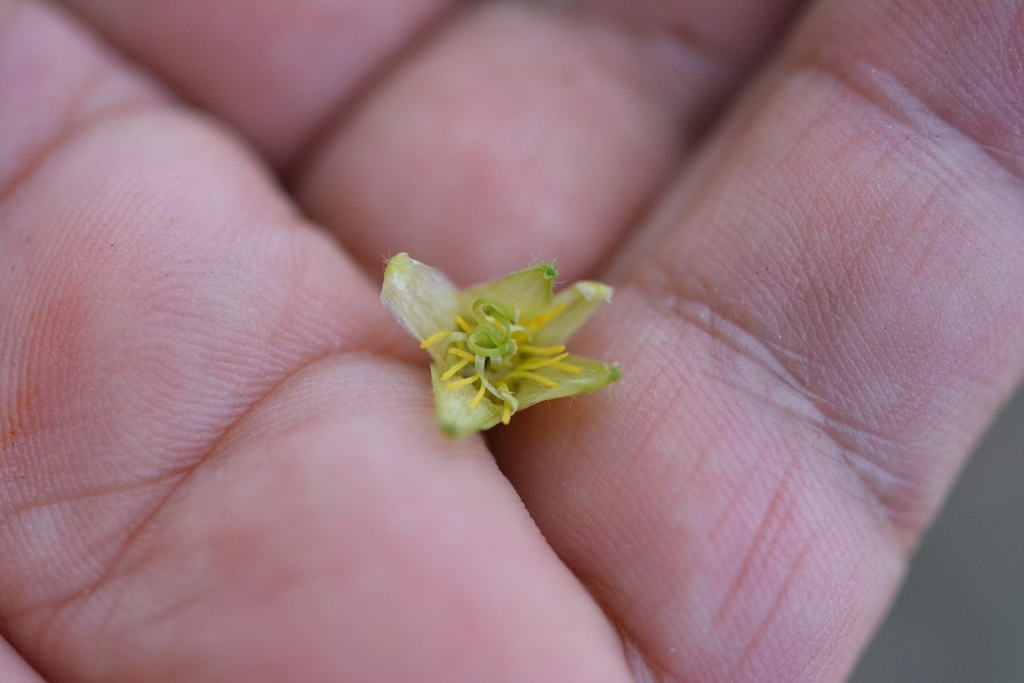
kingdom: Plantae
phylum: Tracheophyta
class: Magnoliopsida
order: Malpighiales
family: Passifloraceae
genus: Passiflora
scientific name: Passiflora suberosa
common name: Wild passionfruit
